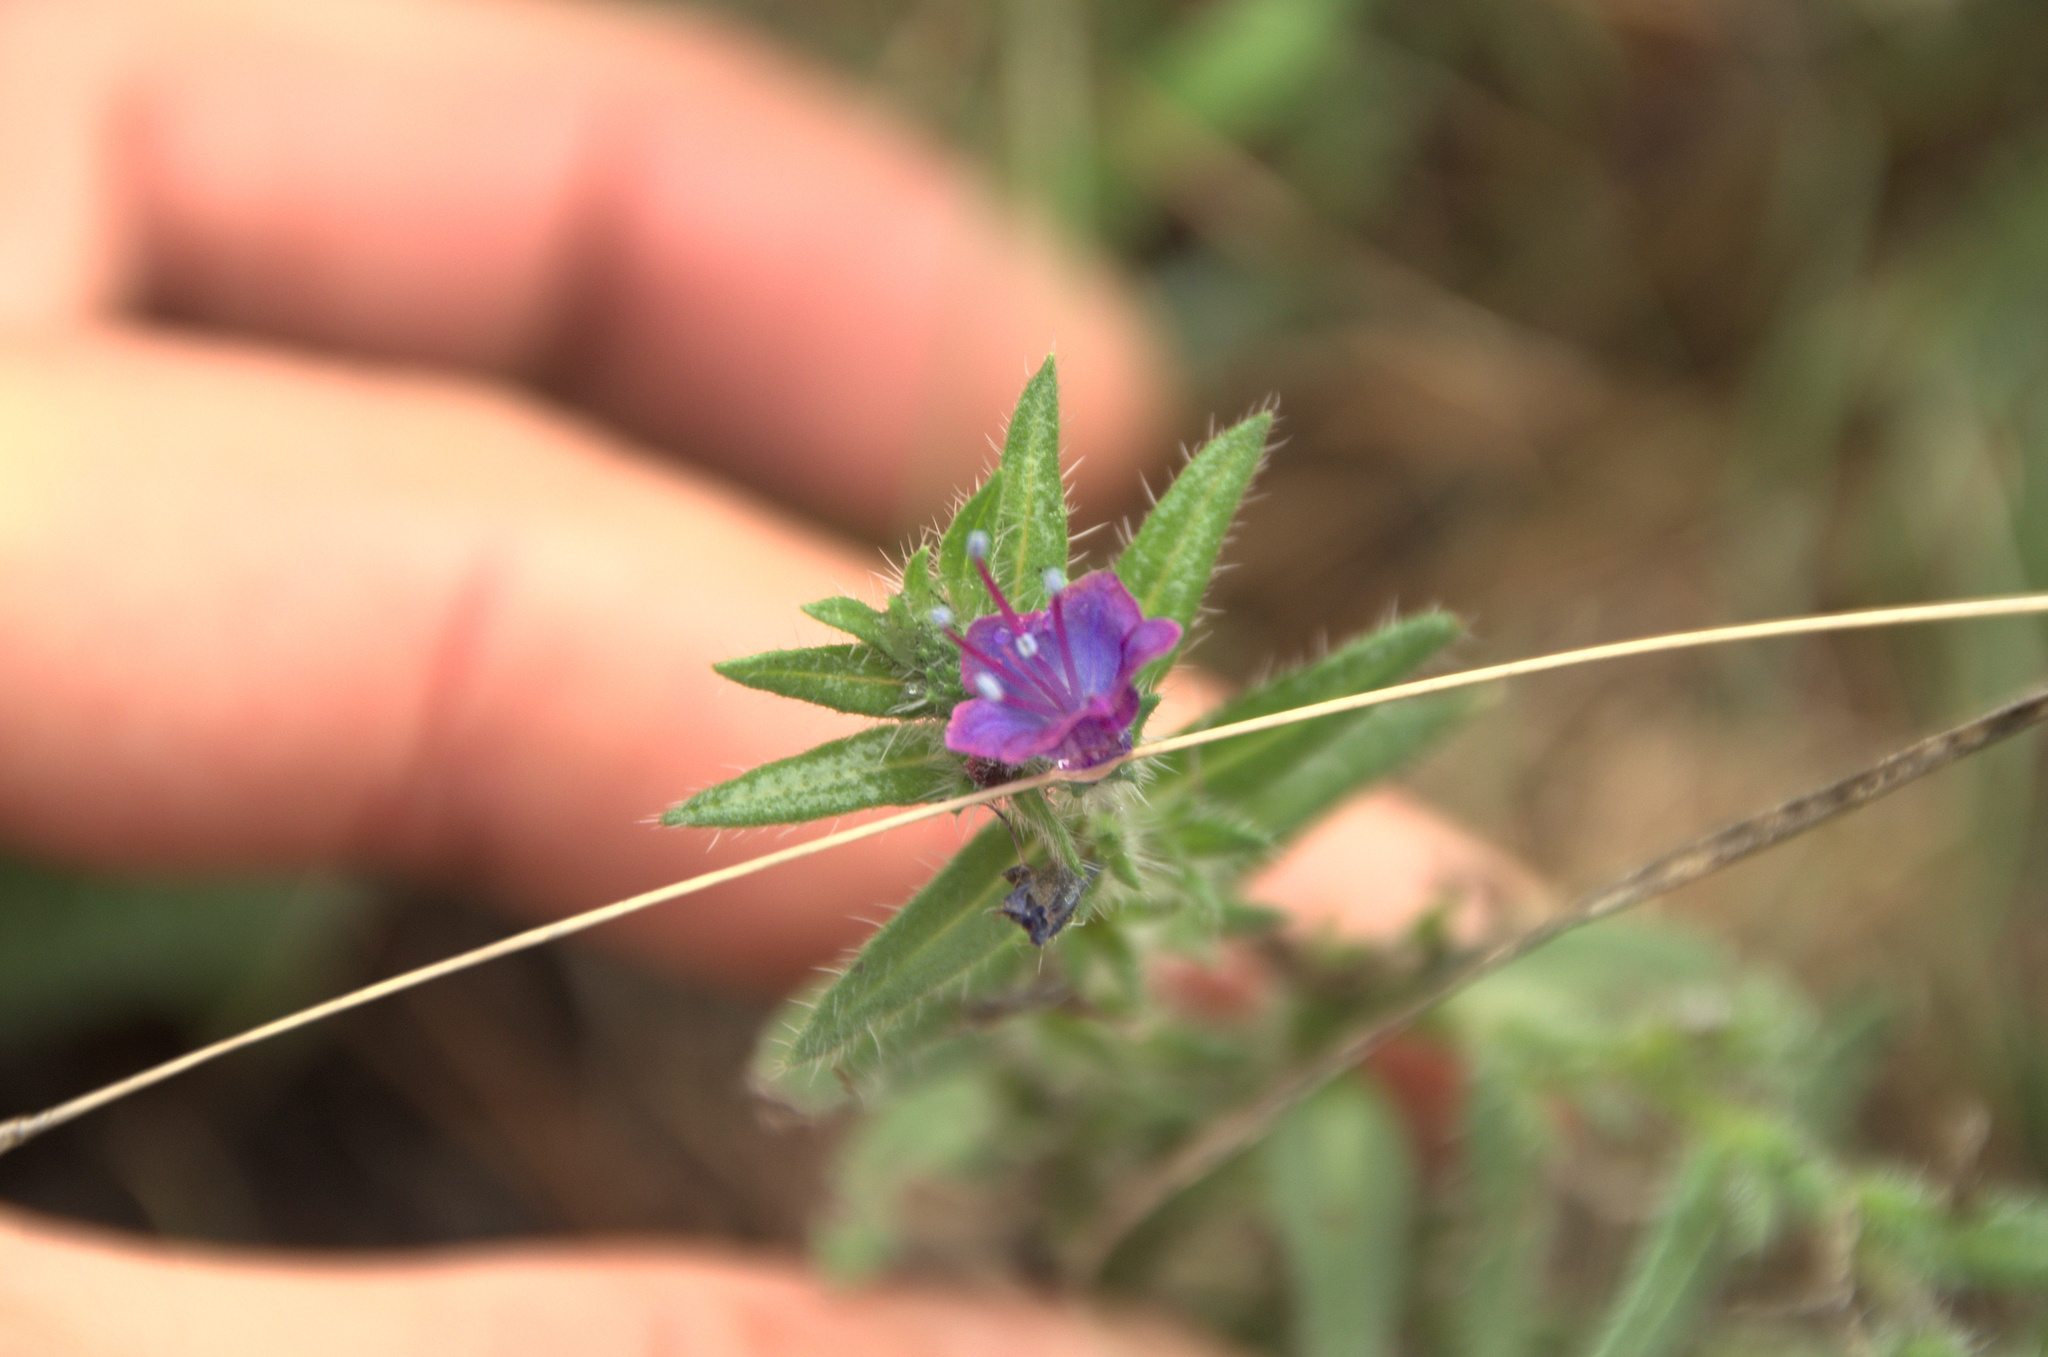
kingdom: Plantae
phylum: Tracheophyta
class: Magnoliopsida
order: Boraginales
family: Boraginaceae
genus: Echium
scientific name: Echium vulgare
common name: Common viper's bugloss
